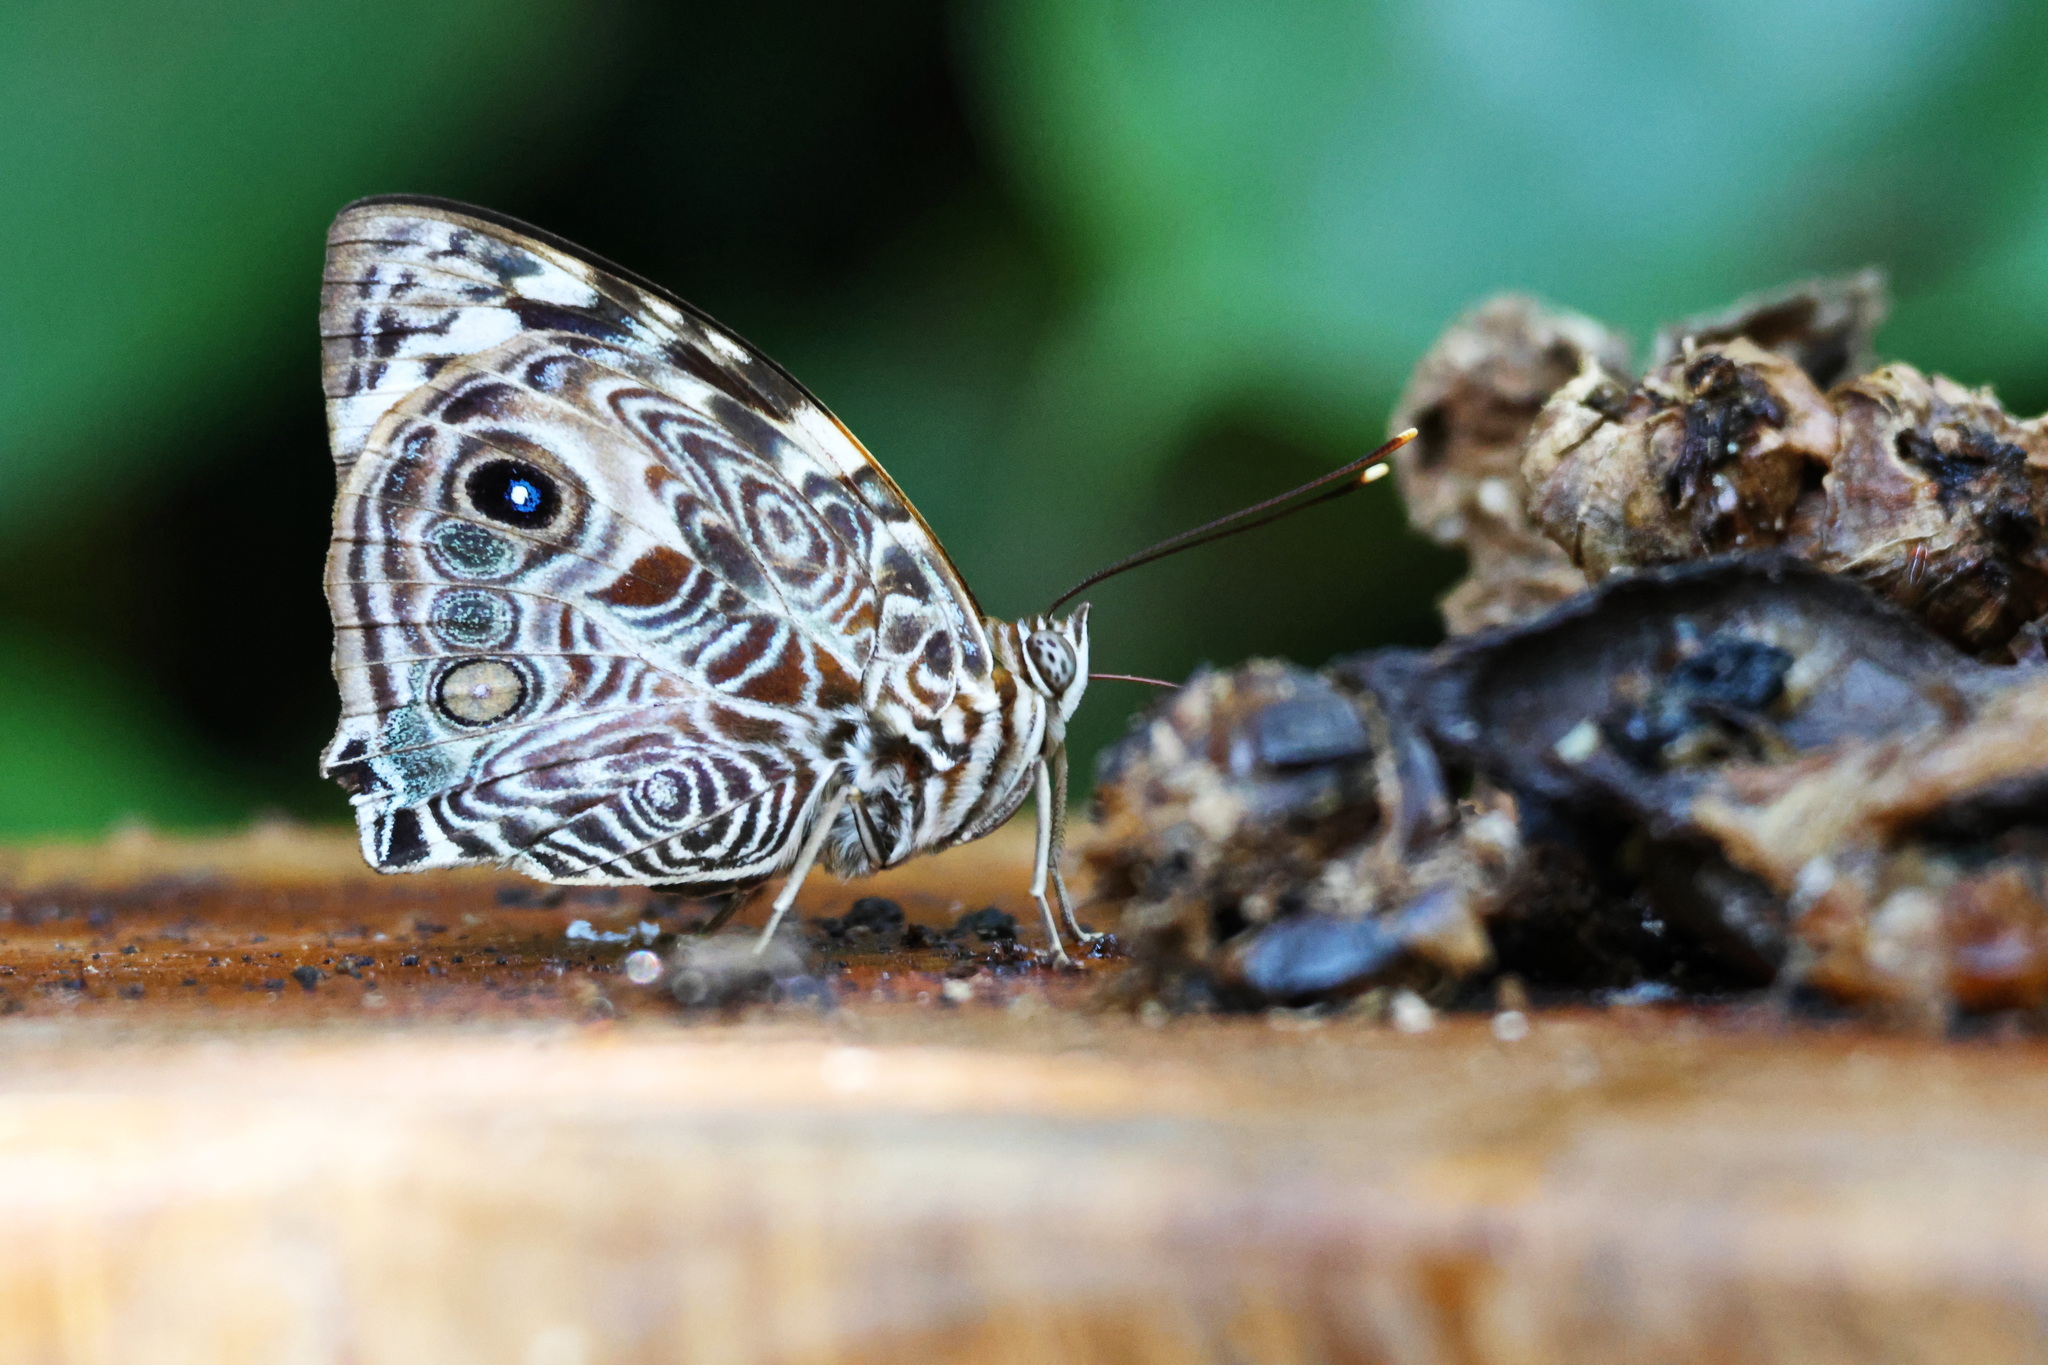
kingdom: Animalia
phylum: Arthropoda
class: Insecta
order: Lepidoptera
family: Nymphalidae
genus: Smyrna
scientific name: Smyrna blomfildia
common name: Blomfild's beauty
